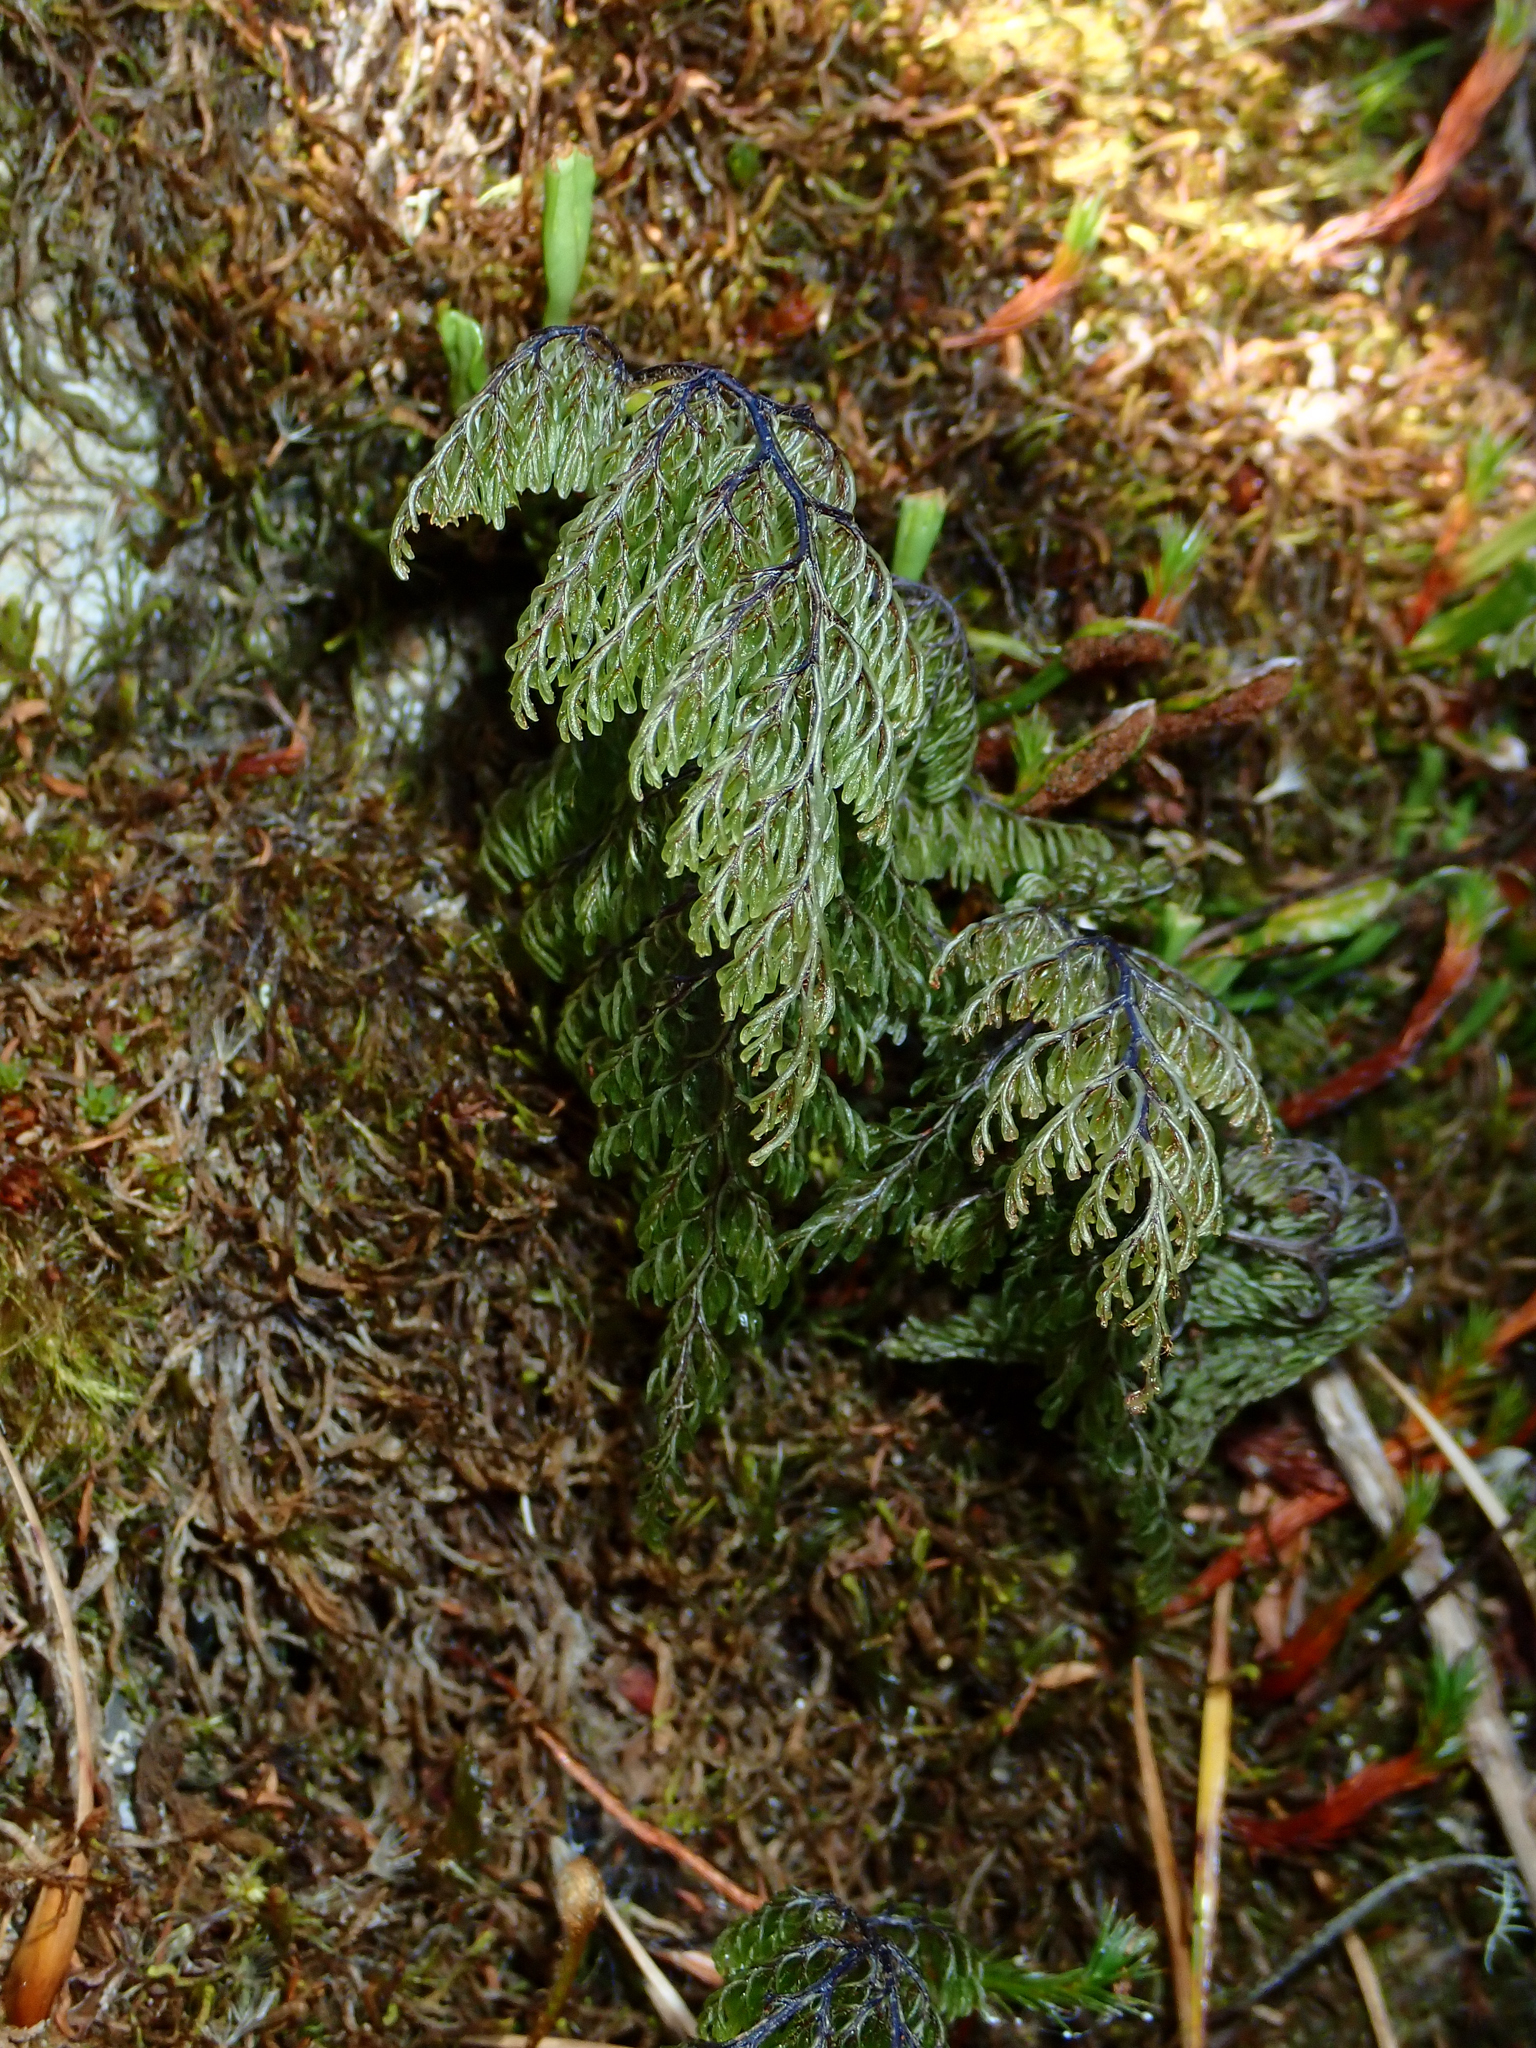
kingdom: Plantae
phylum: Tracheophyta
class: Polypodiopsida
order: Hymenophyllales
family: Hymenophyllaceae
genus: Hymenophyllum
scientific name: Hymenophyllum multifidum
